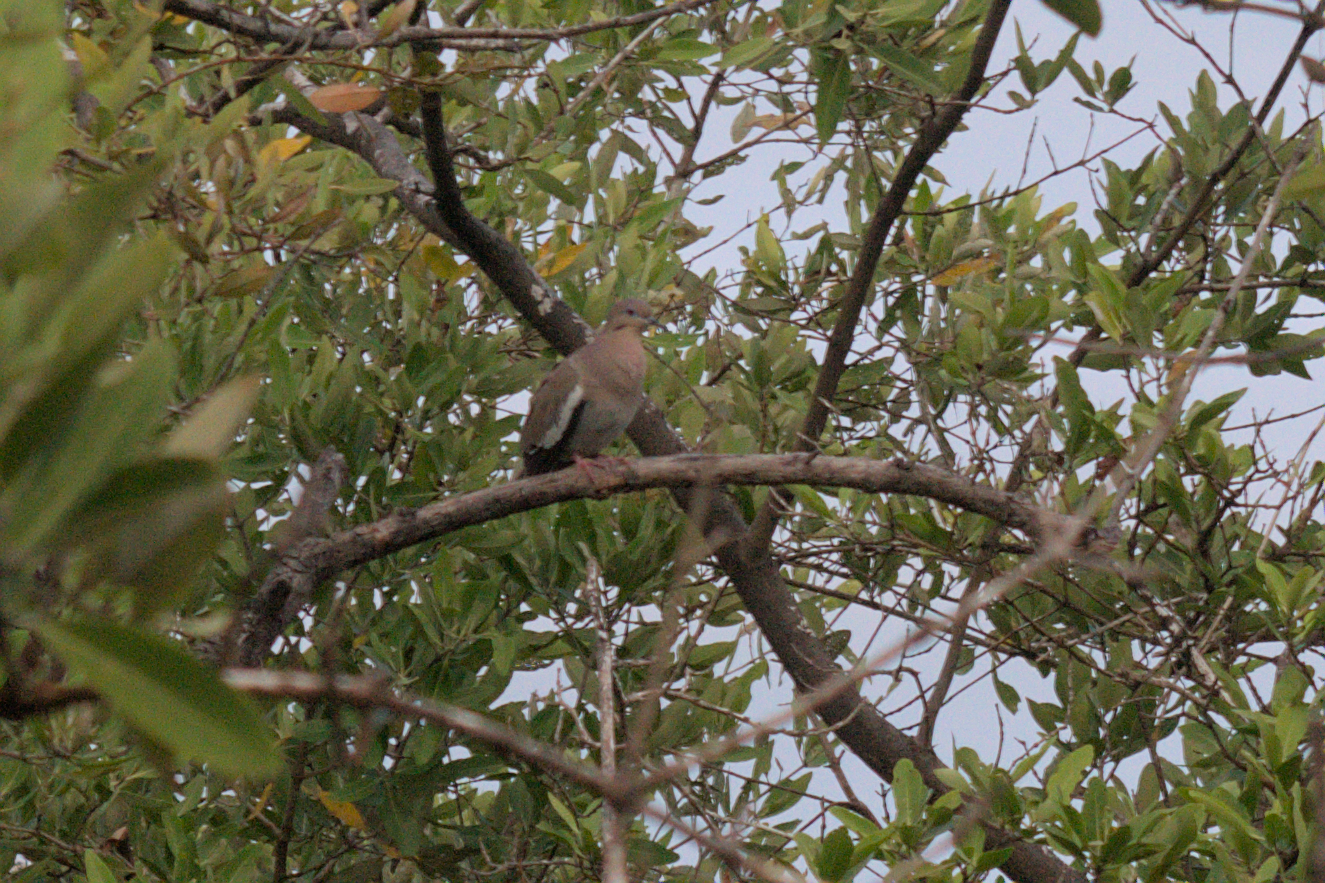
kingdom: Animalia
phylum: Chordata
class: Aves
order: Columbiformes
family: Columbidae
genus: Zenaida
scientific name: Zenaida asiatica
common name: White-winged dove
